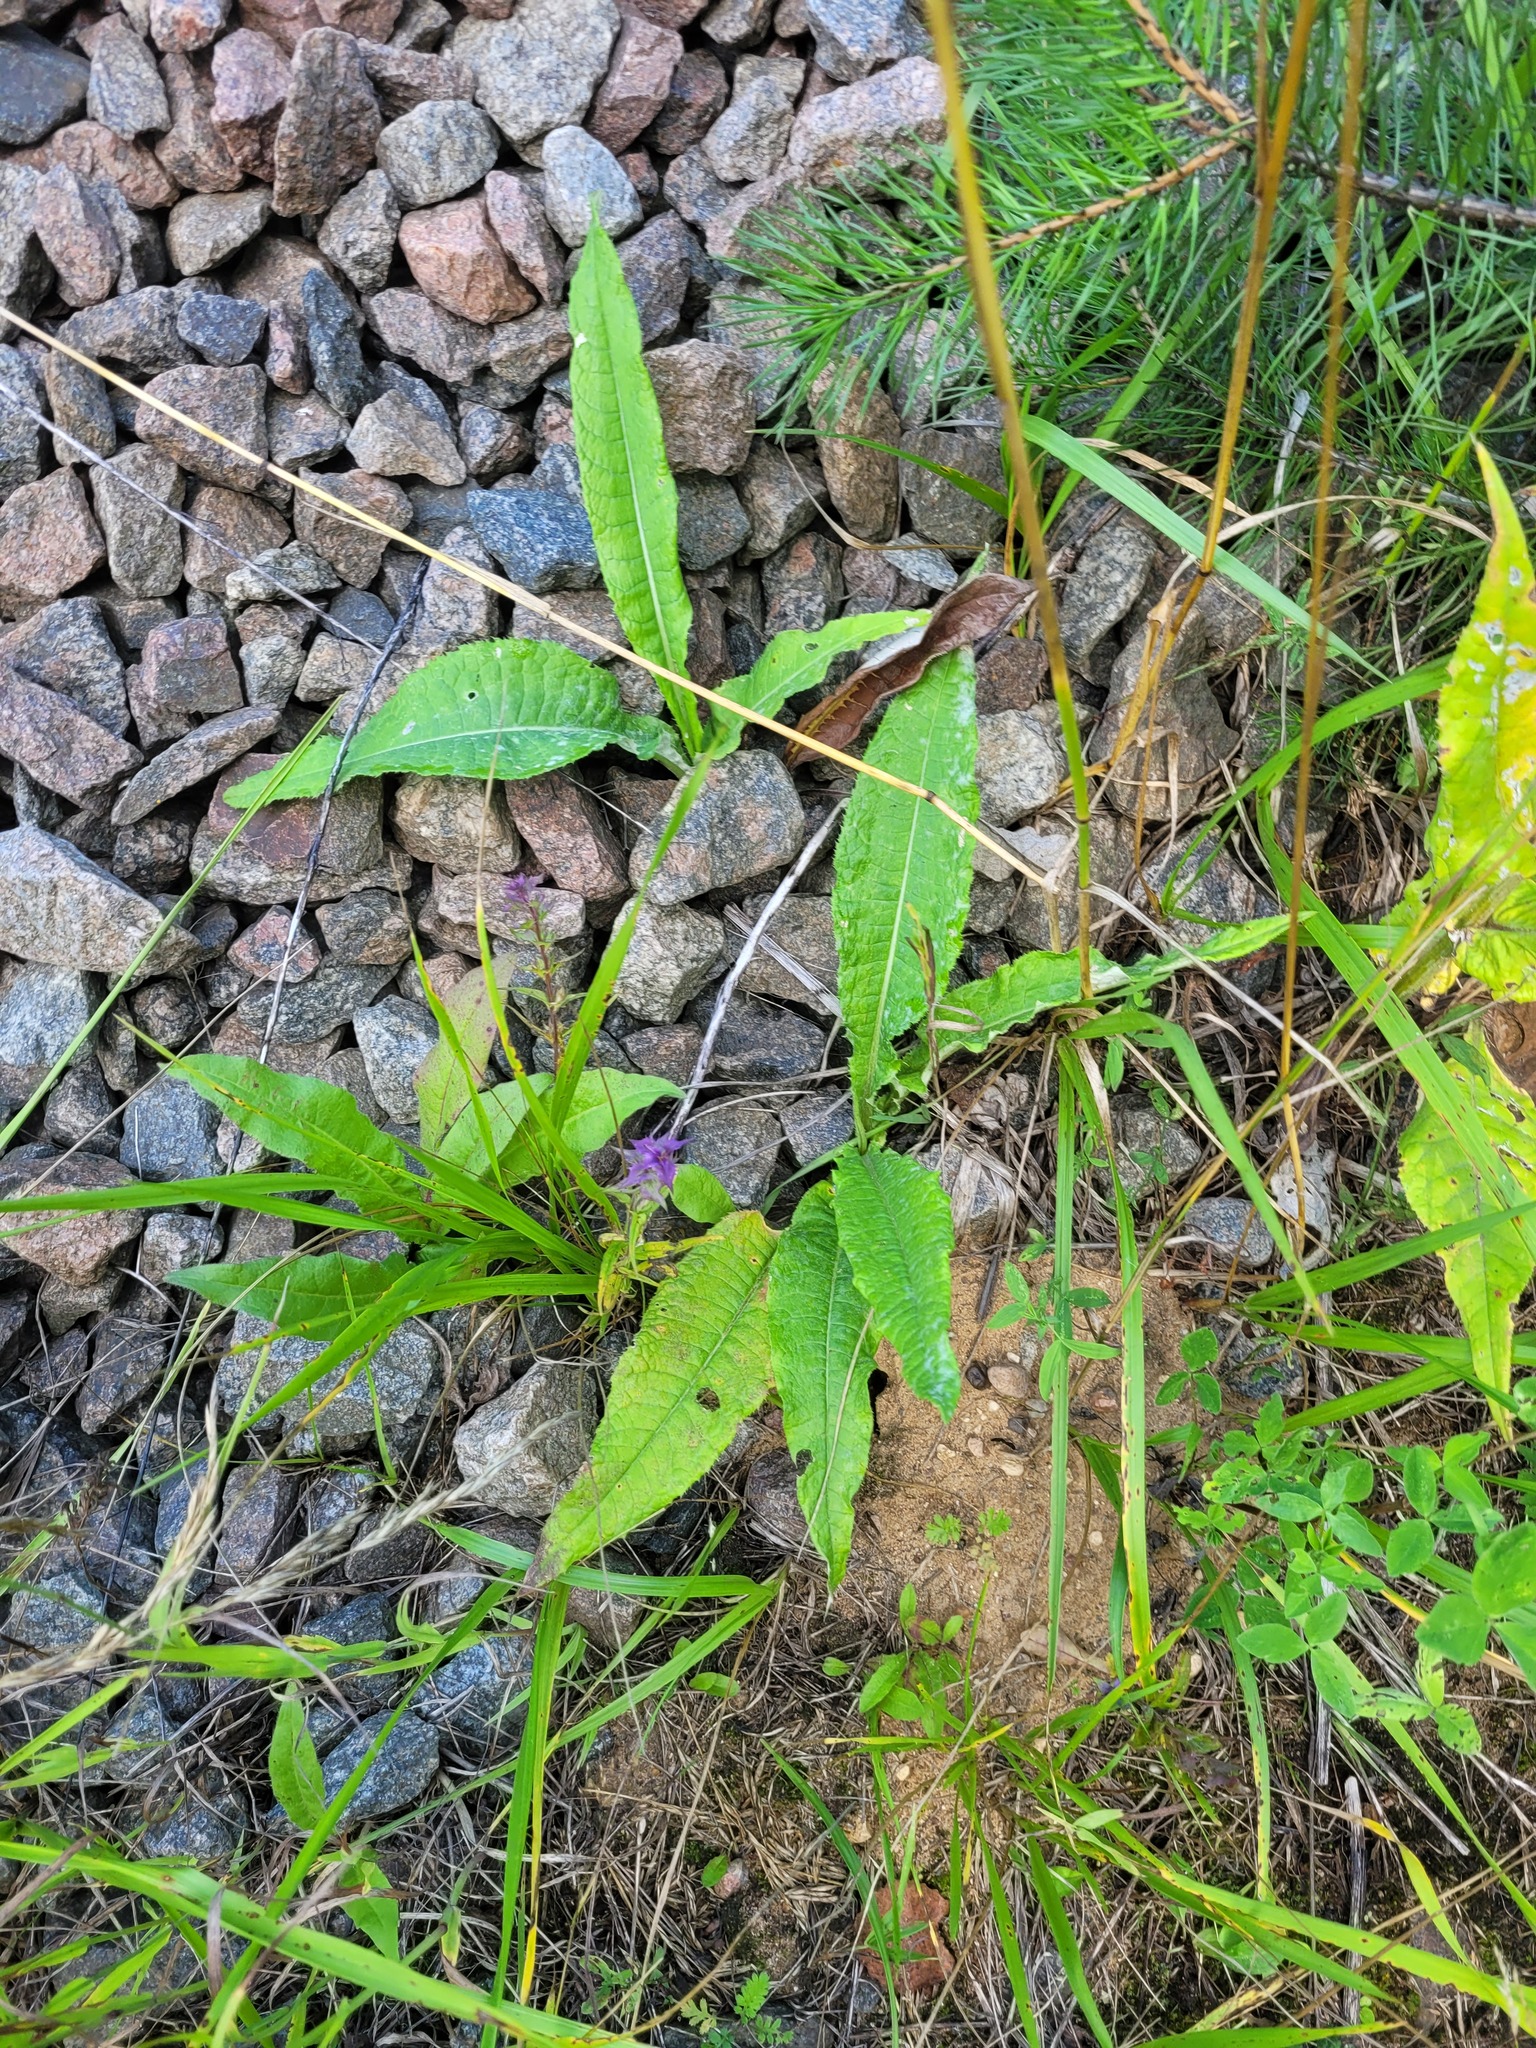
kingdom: Plantae
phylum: Tracheophyta
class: Magnoliopsida
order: Asterales
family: Asteraceae
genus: Cirsium
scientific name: Cirsium heterophyllum
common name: Melancholy thistle
